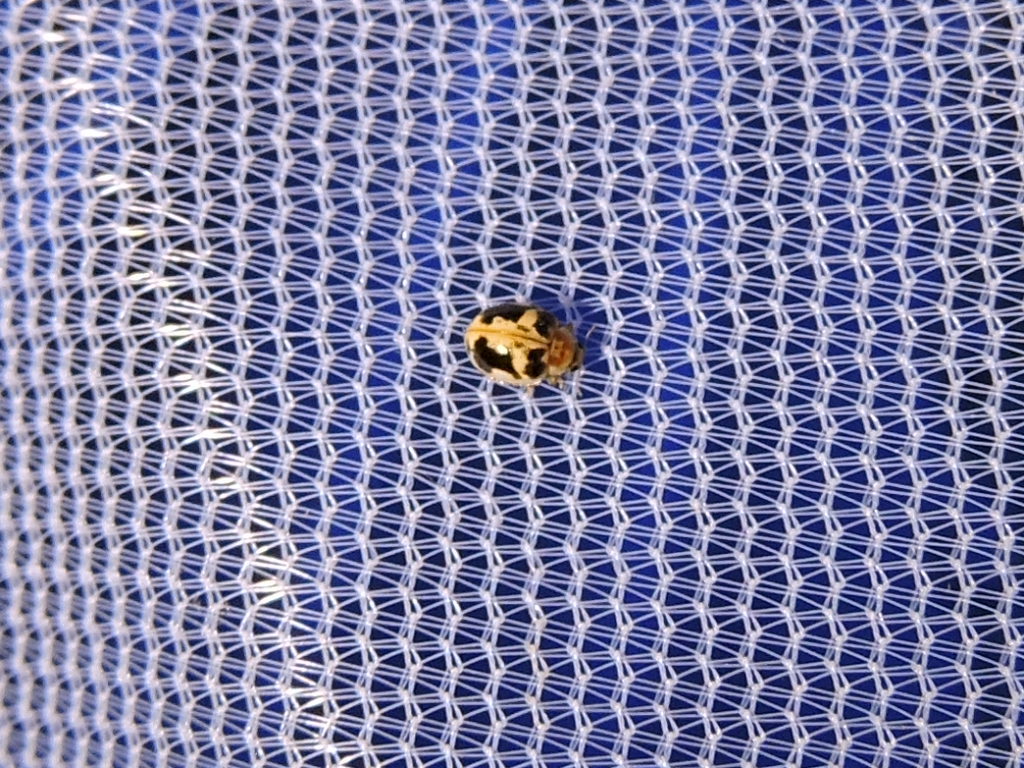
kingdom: Animalia
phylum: Arthropoda
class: Insecta
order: Coleoptera
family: Coccinellidae
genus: Psyllobora
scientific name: Psyllobora renifer
